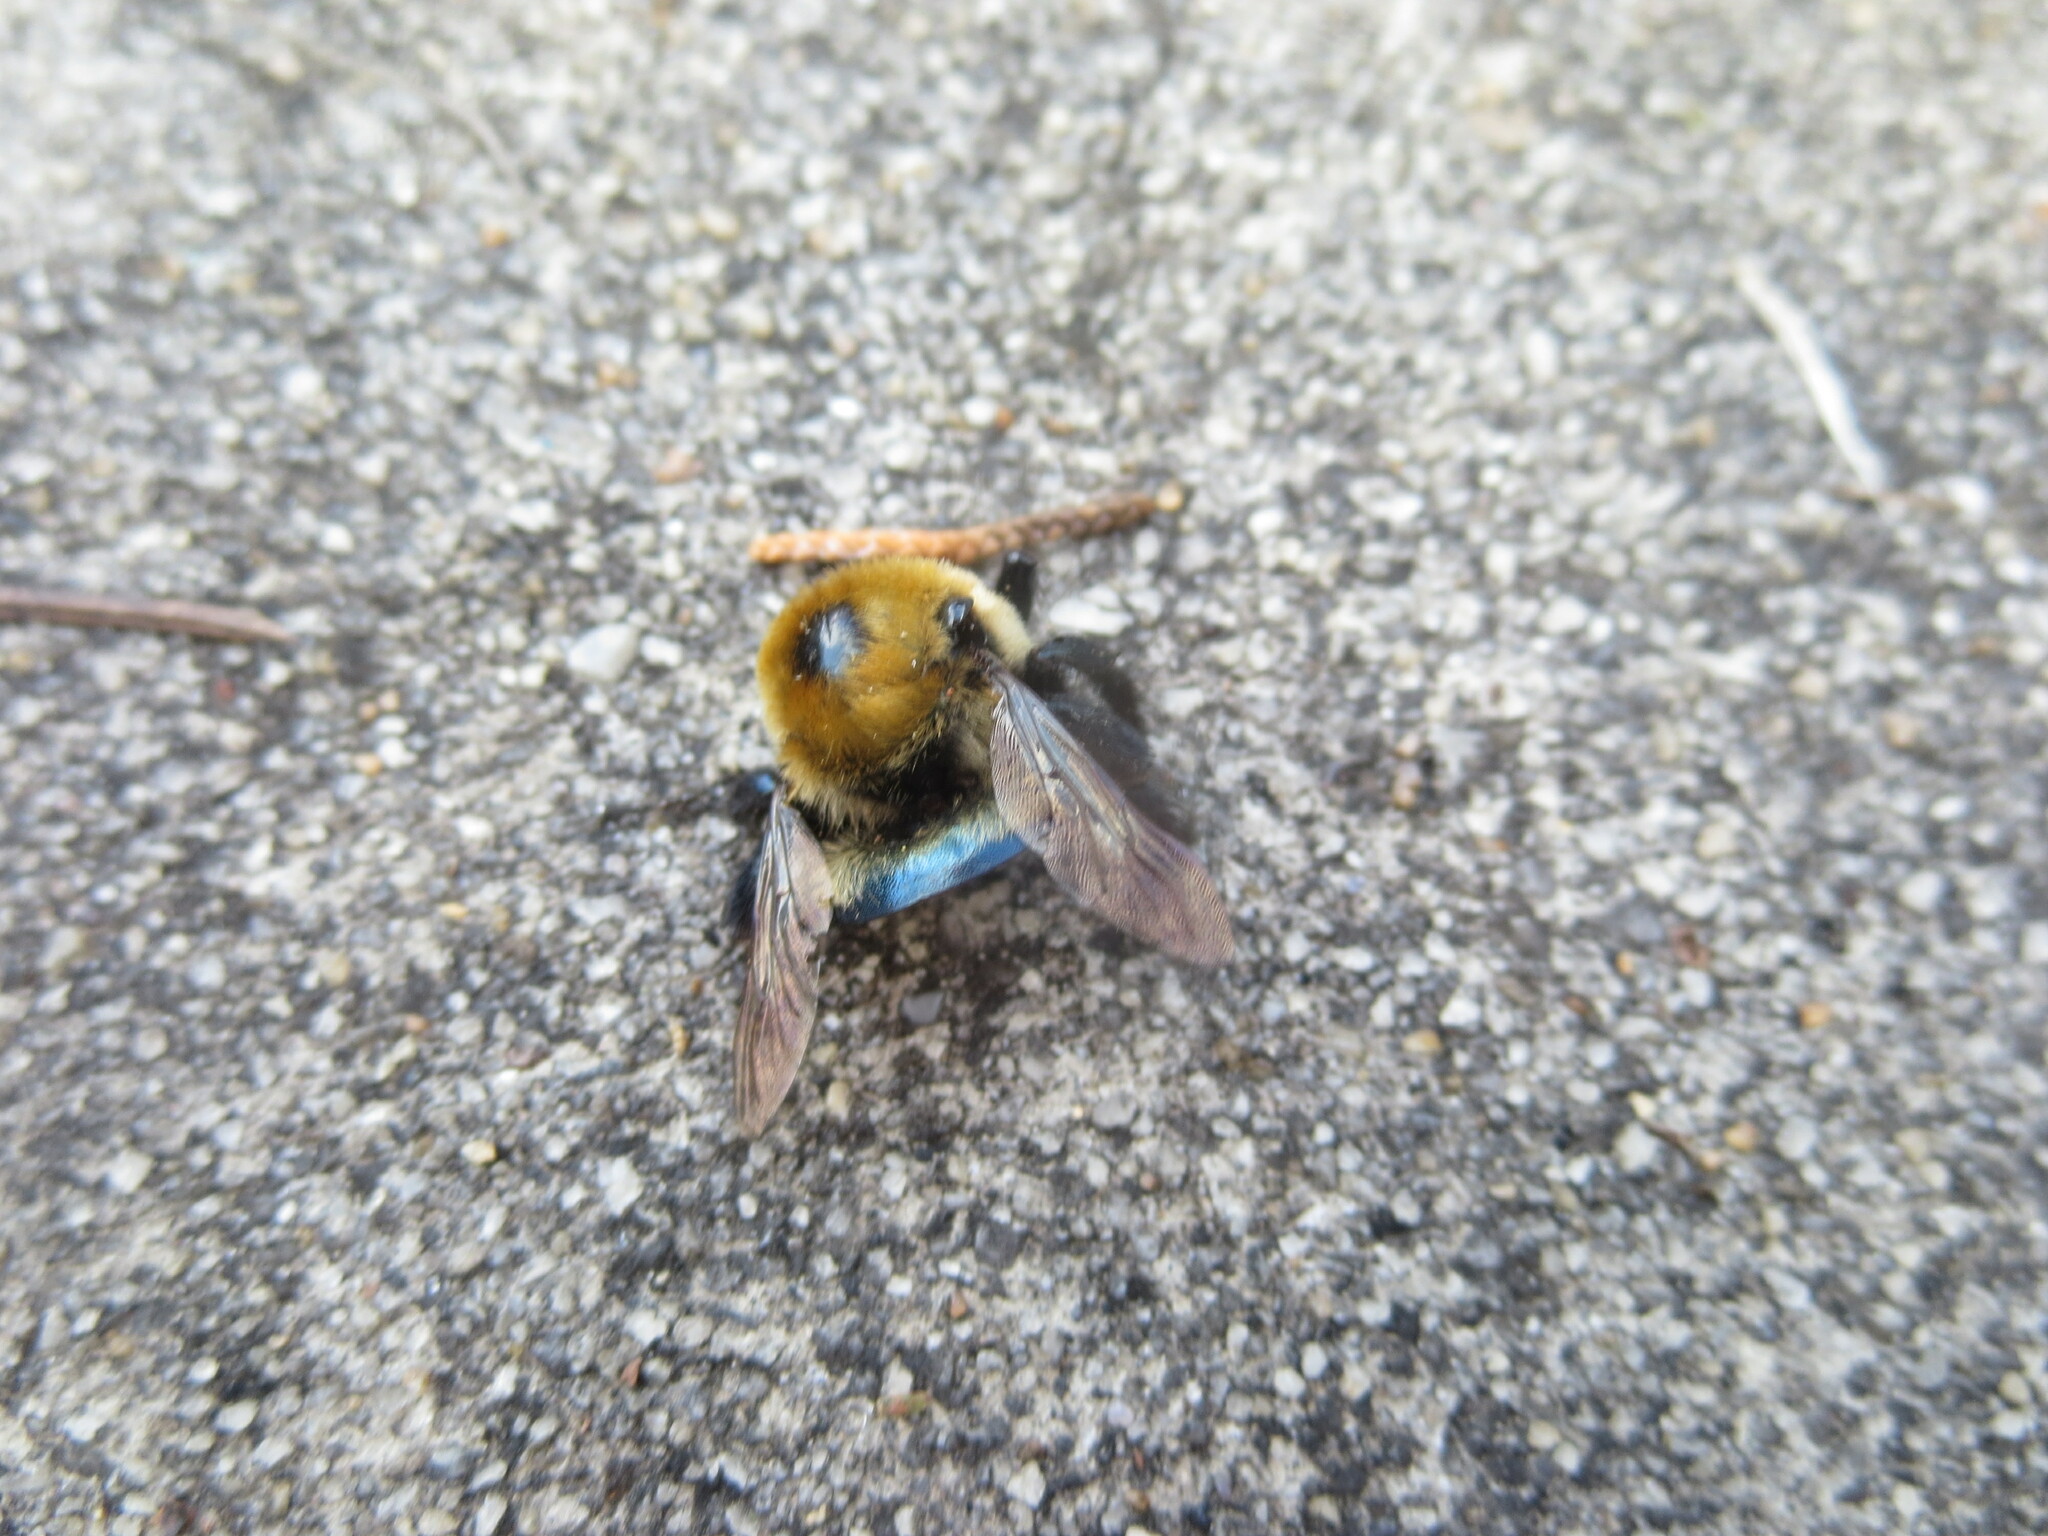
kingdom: Animalia
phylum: Arthropoda
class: Insecta
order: Hymenoptera
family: Apidae
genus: Xylocopa
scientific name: Xylocopa virginica
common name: Carpenter bee
